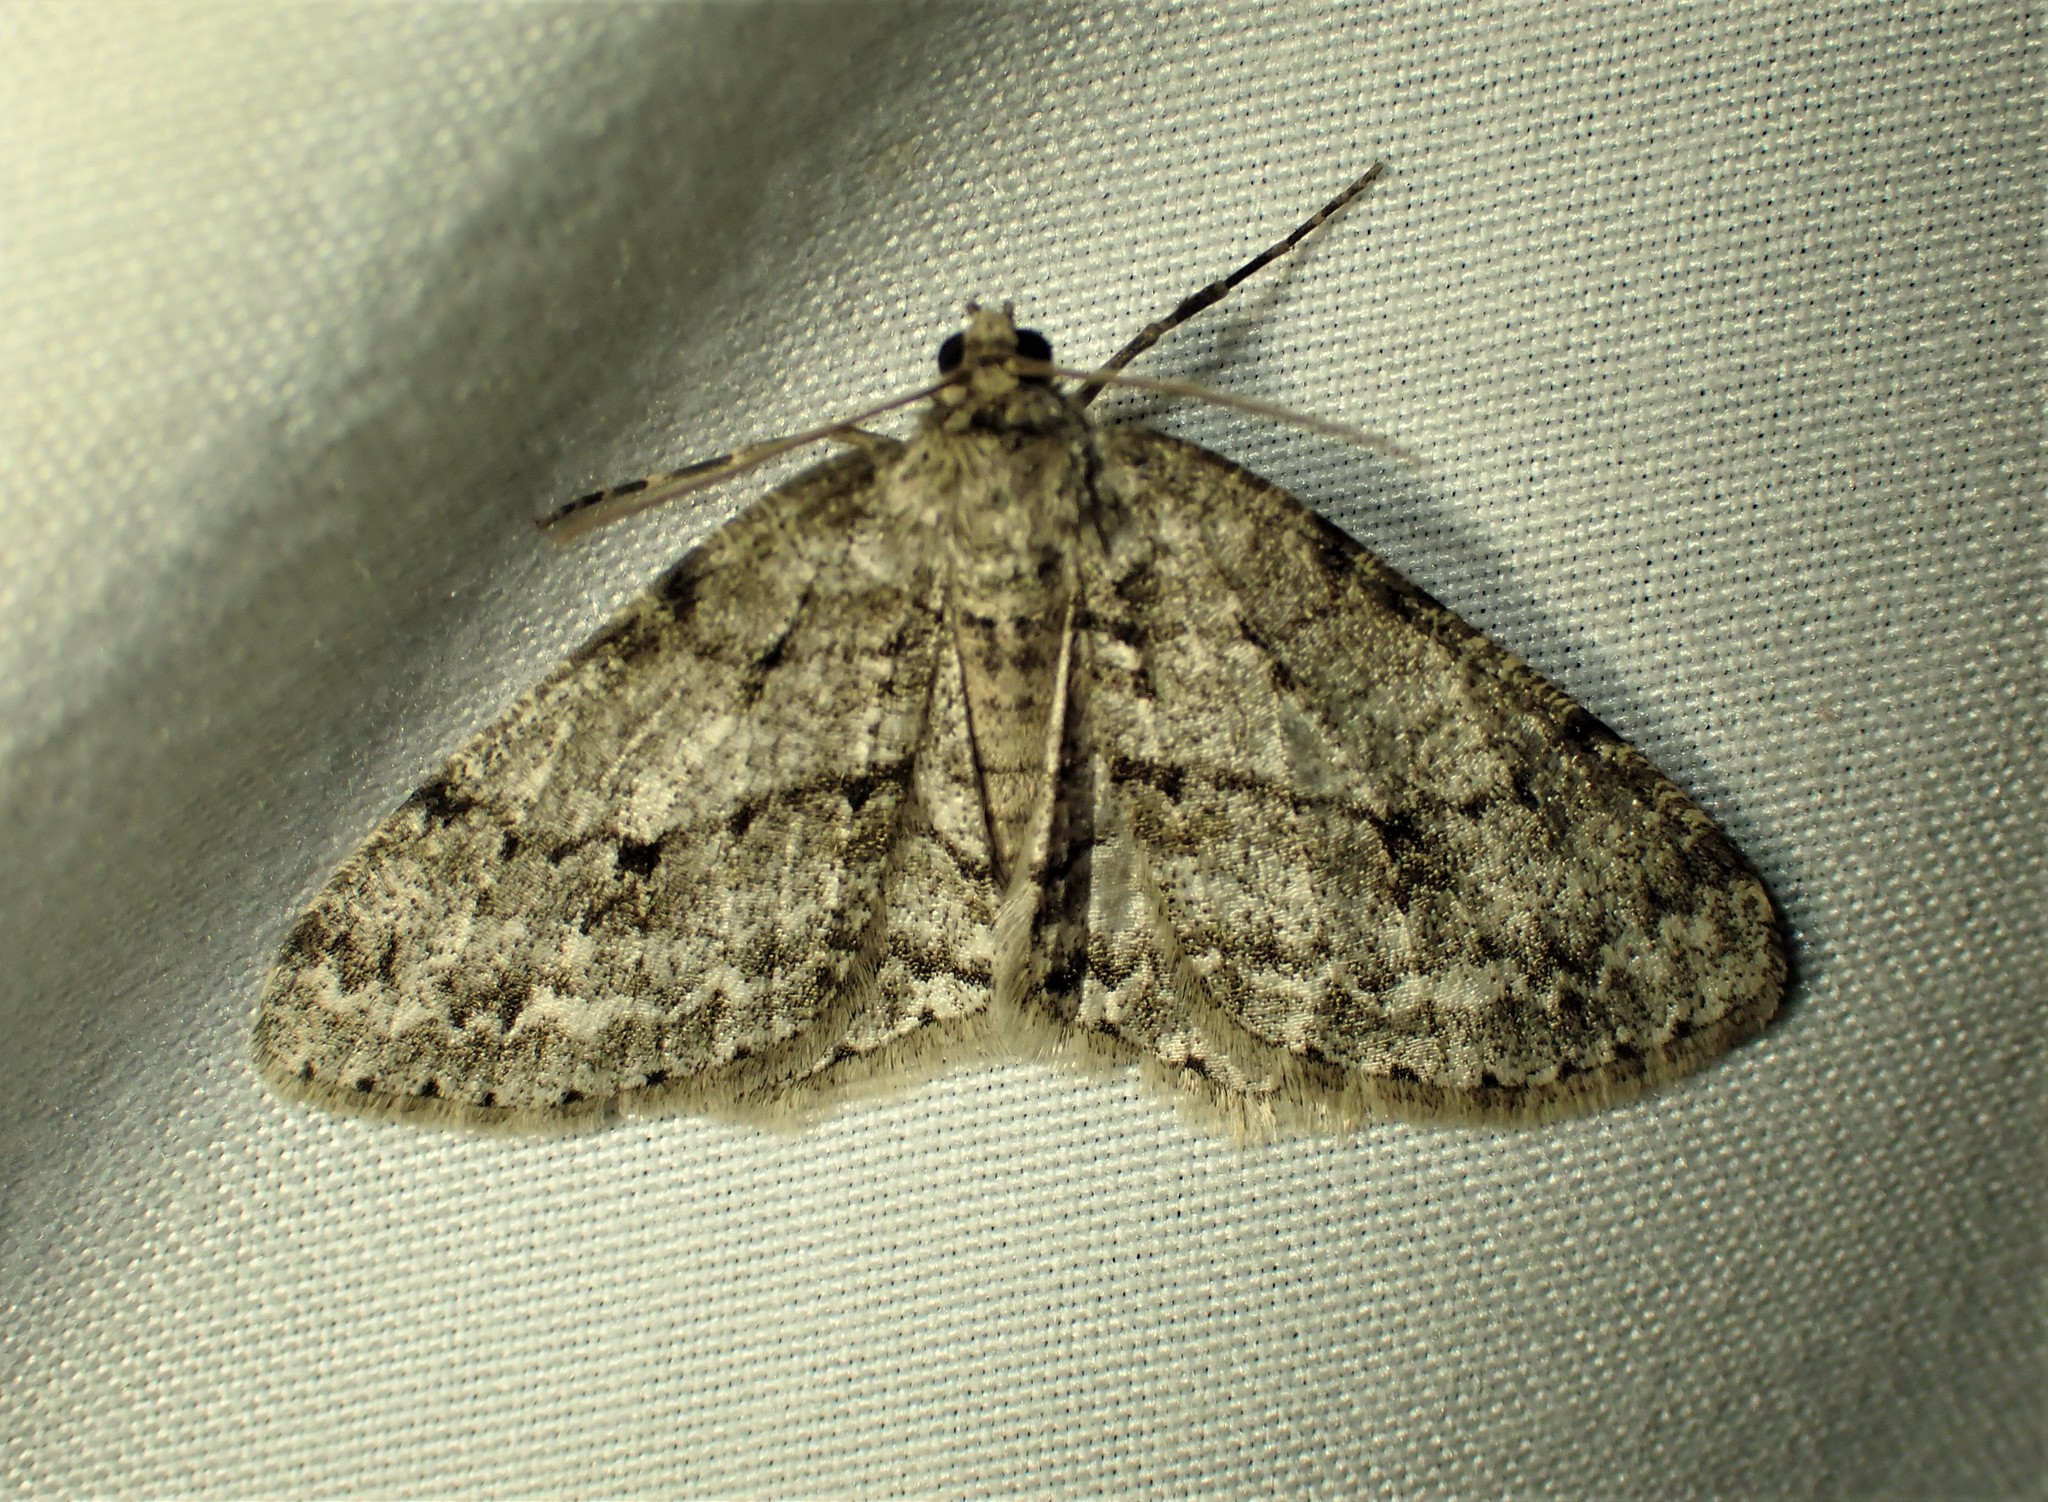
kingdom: Animalia
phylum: Arthropoda
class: Insecta
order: Lepidoptera
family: Geometridae
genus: Ectropis
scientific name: Ectropis crepuscularia
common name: Engrailed
